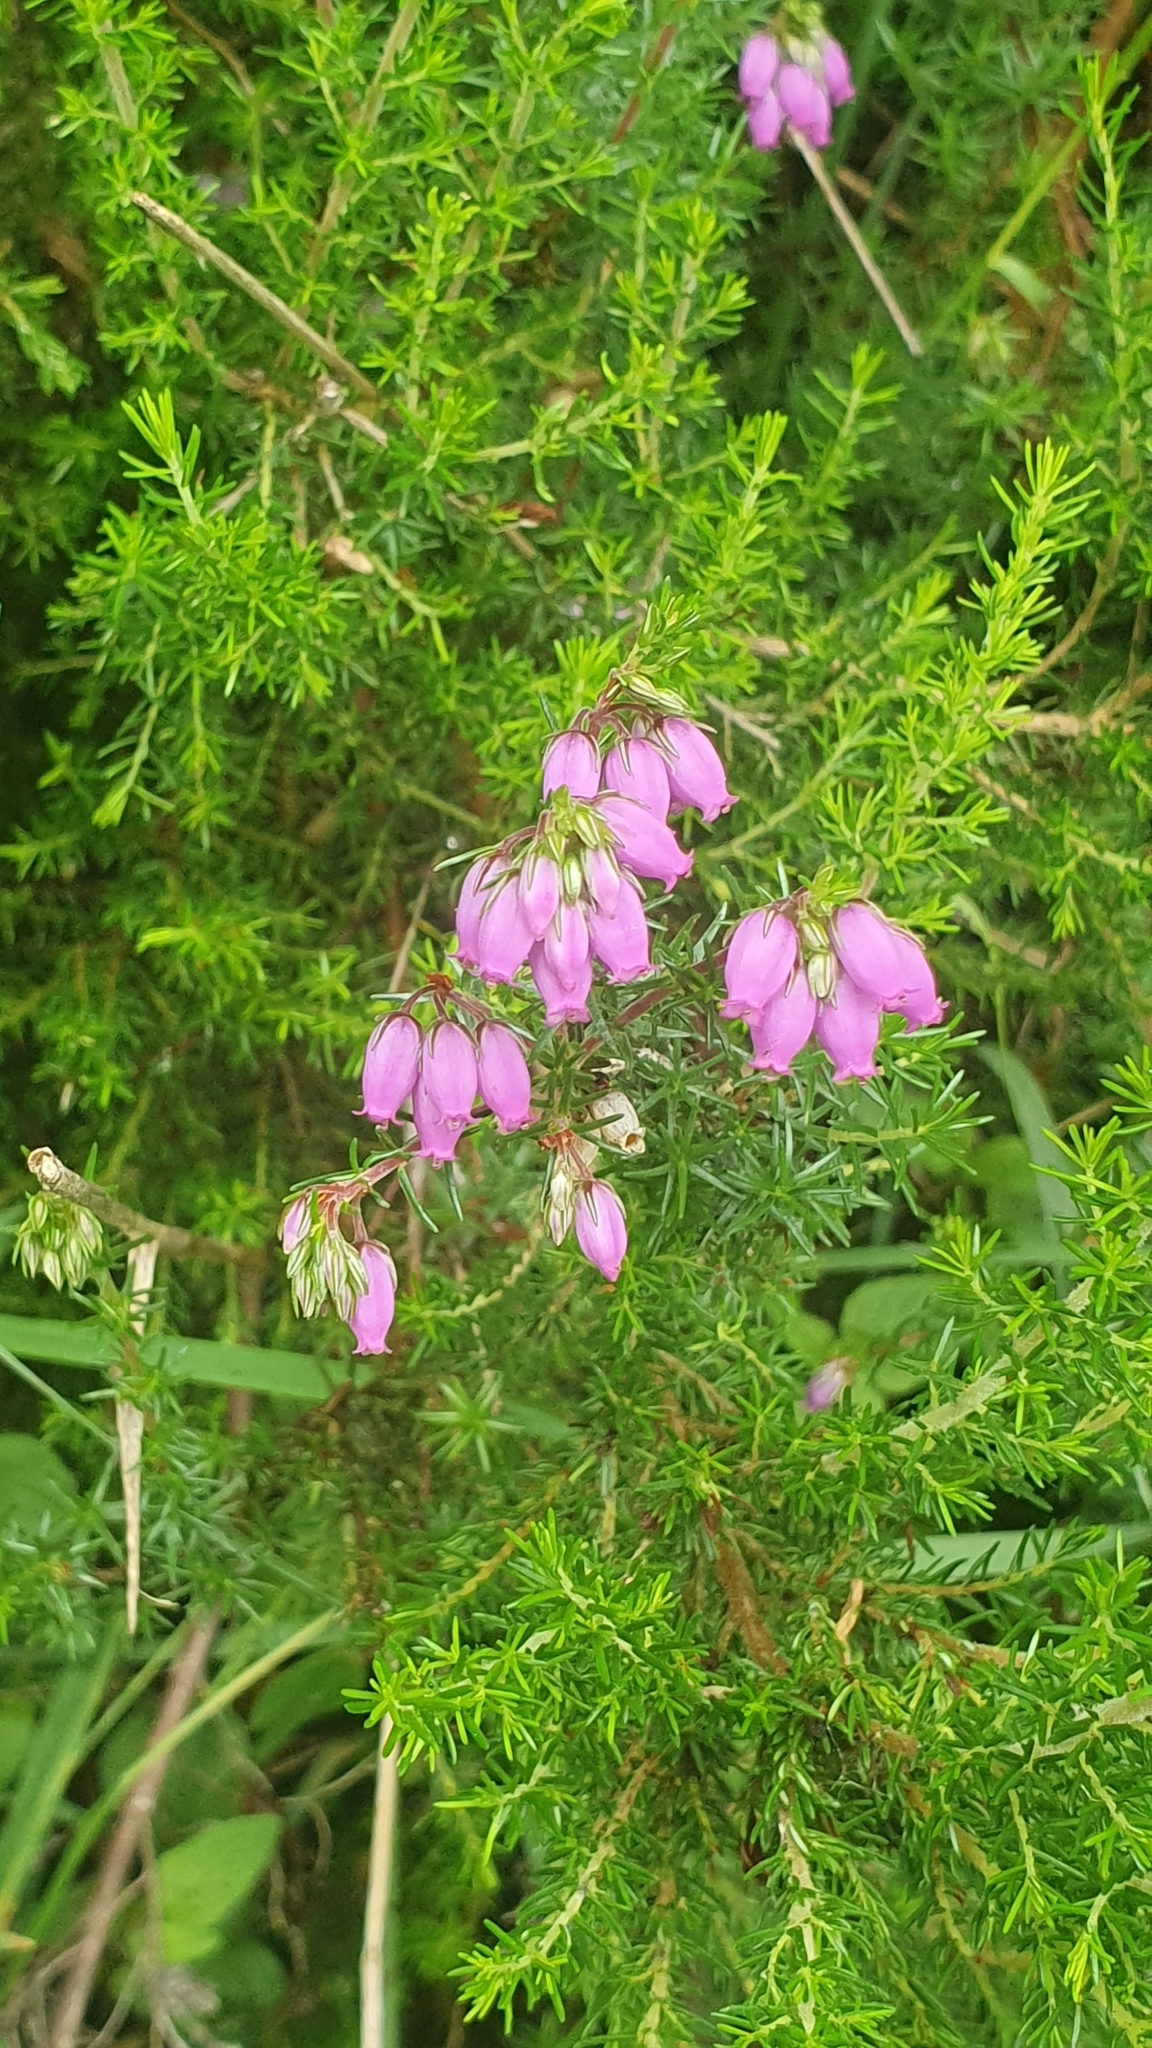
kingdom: Plantae
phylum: Tracheophyta
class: Magnoliopsida
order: Ericales
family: Ericaceae
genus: Erica
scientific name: Erica cinerea
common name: Bell heather
